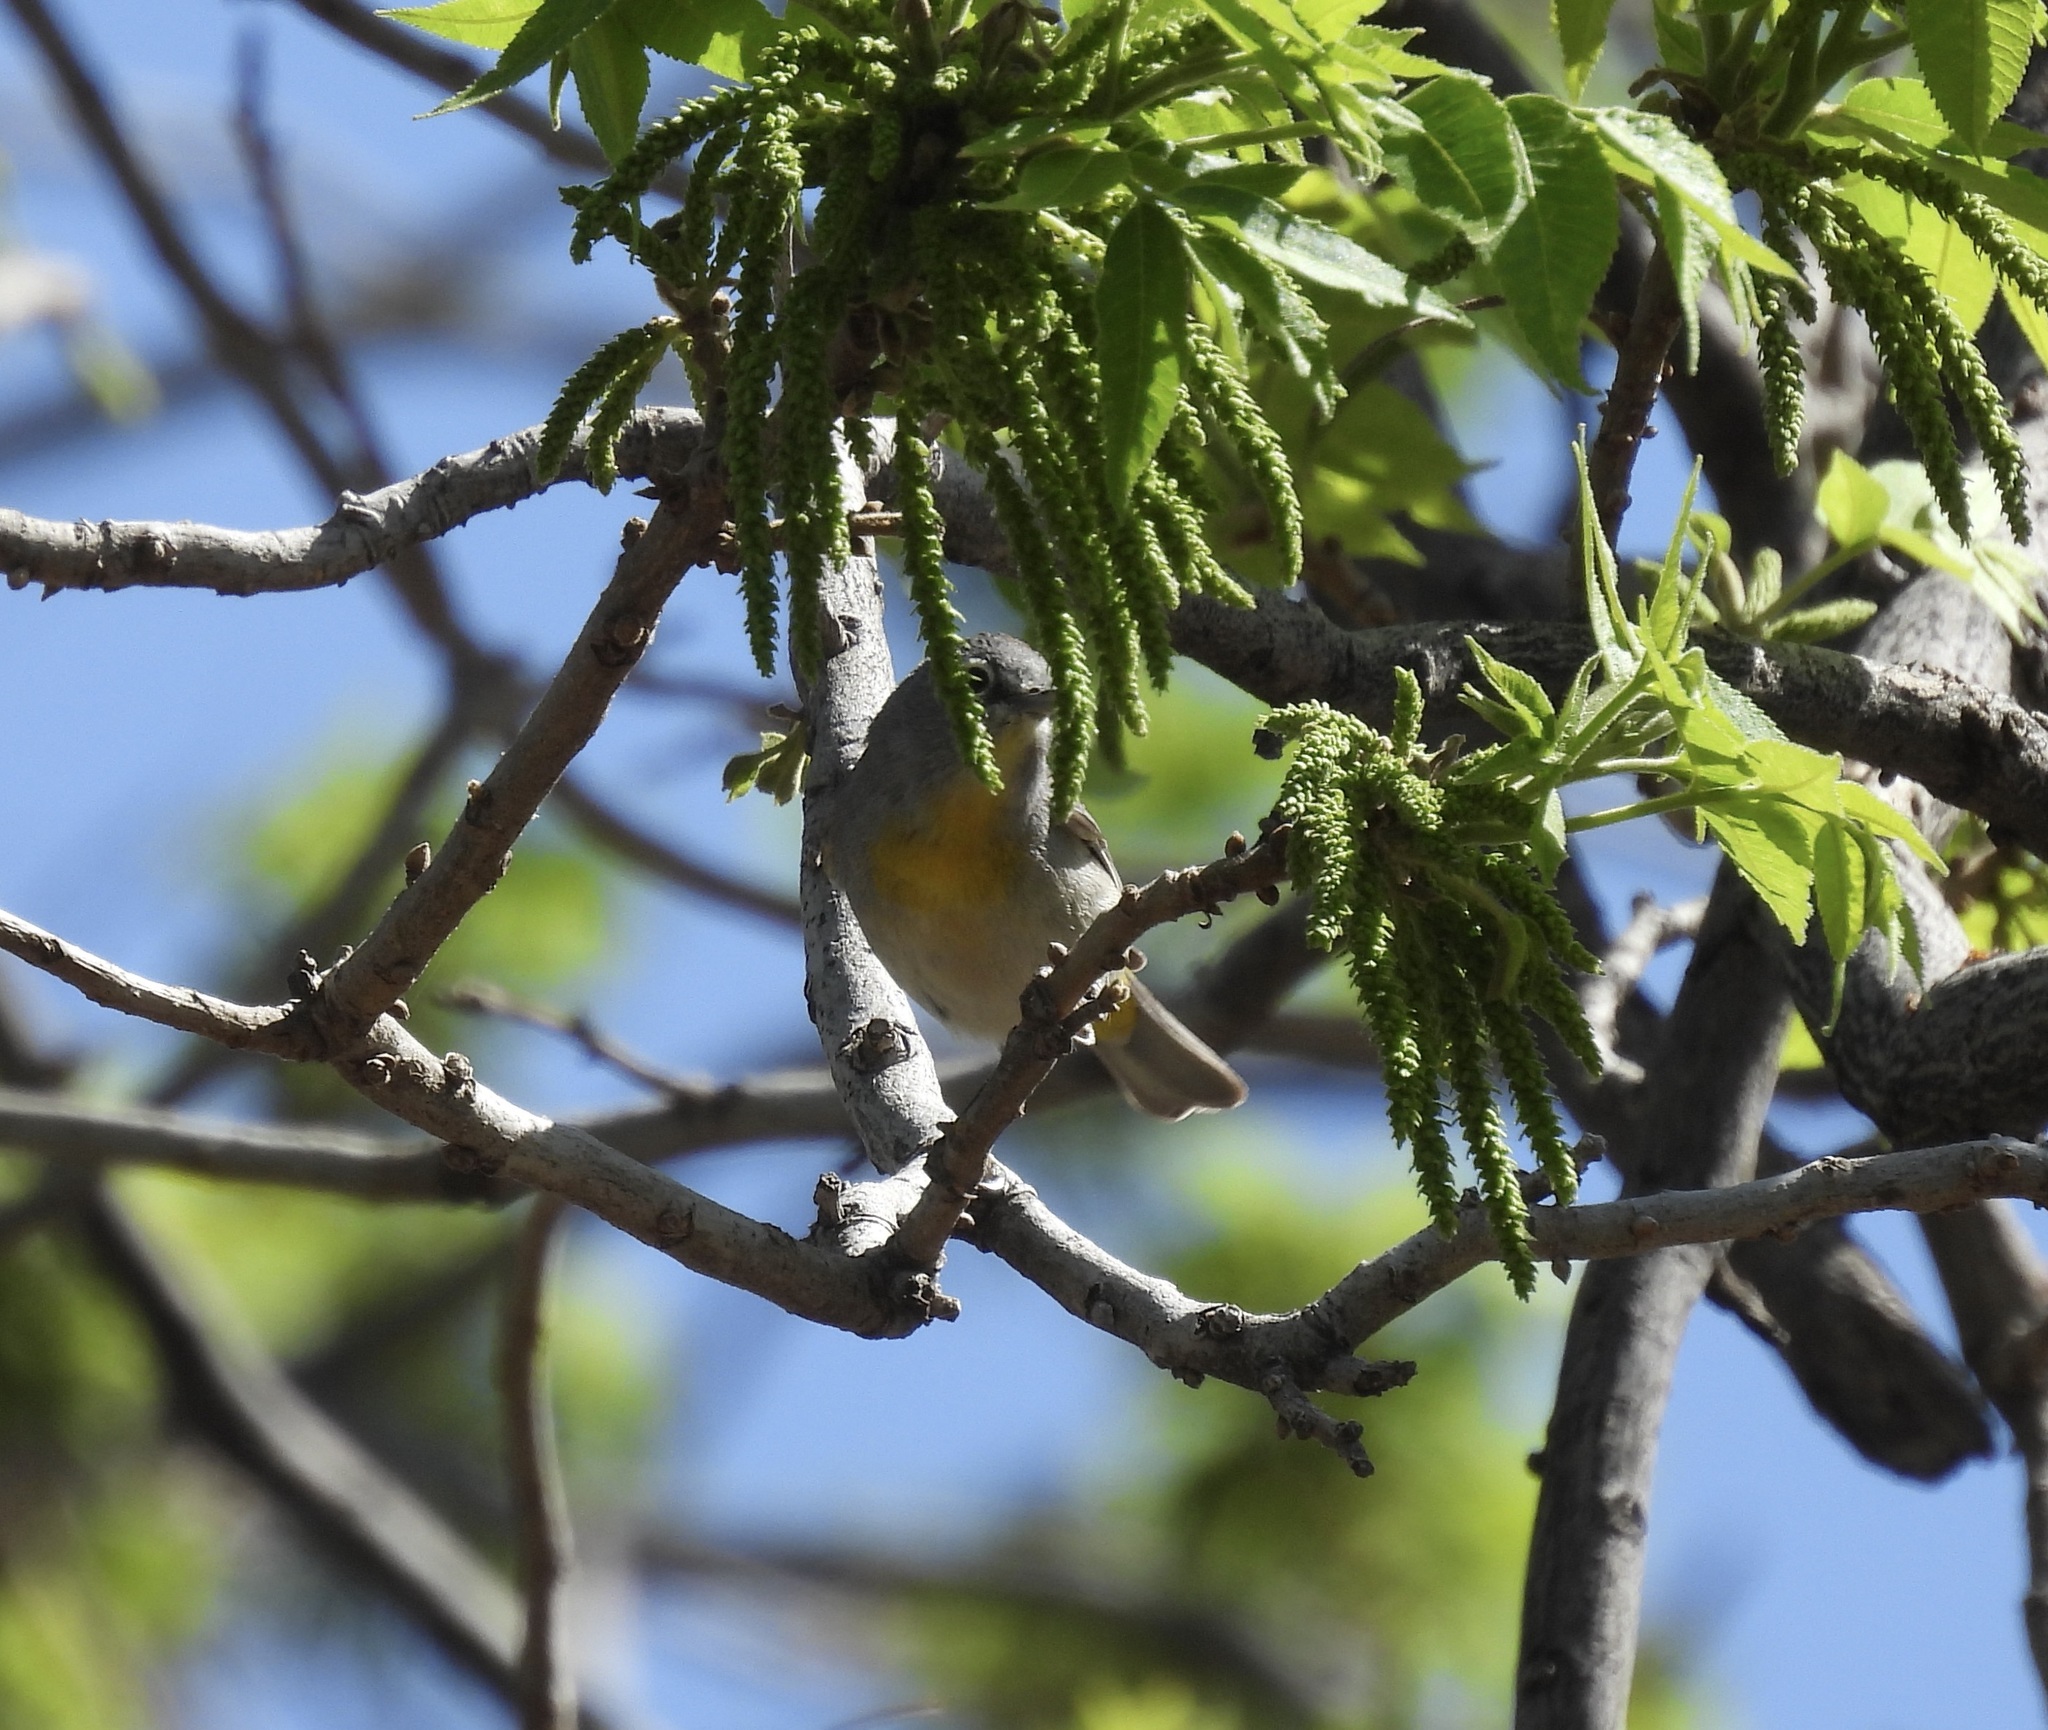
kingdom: Animalia
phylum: Chordata
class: Aves
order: Passeriformes
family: Parulidae
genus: Leiothlypis
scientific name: Leiothlypis virginiae
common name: Virginia's warbler
